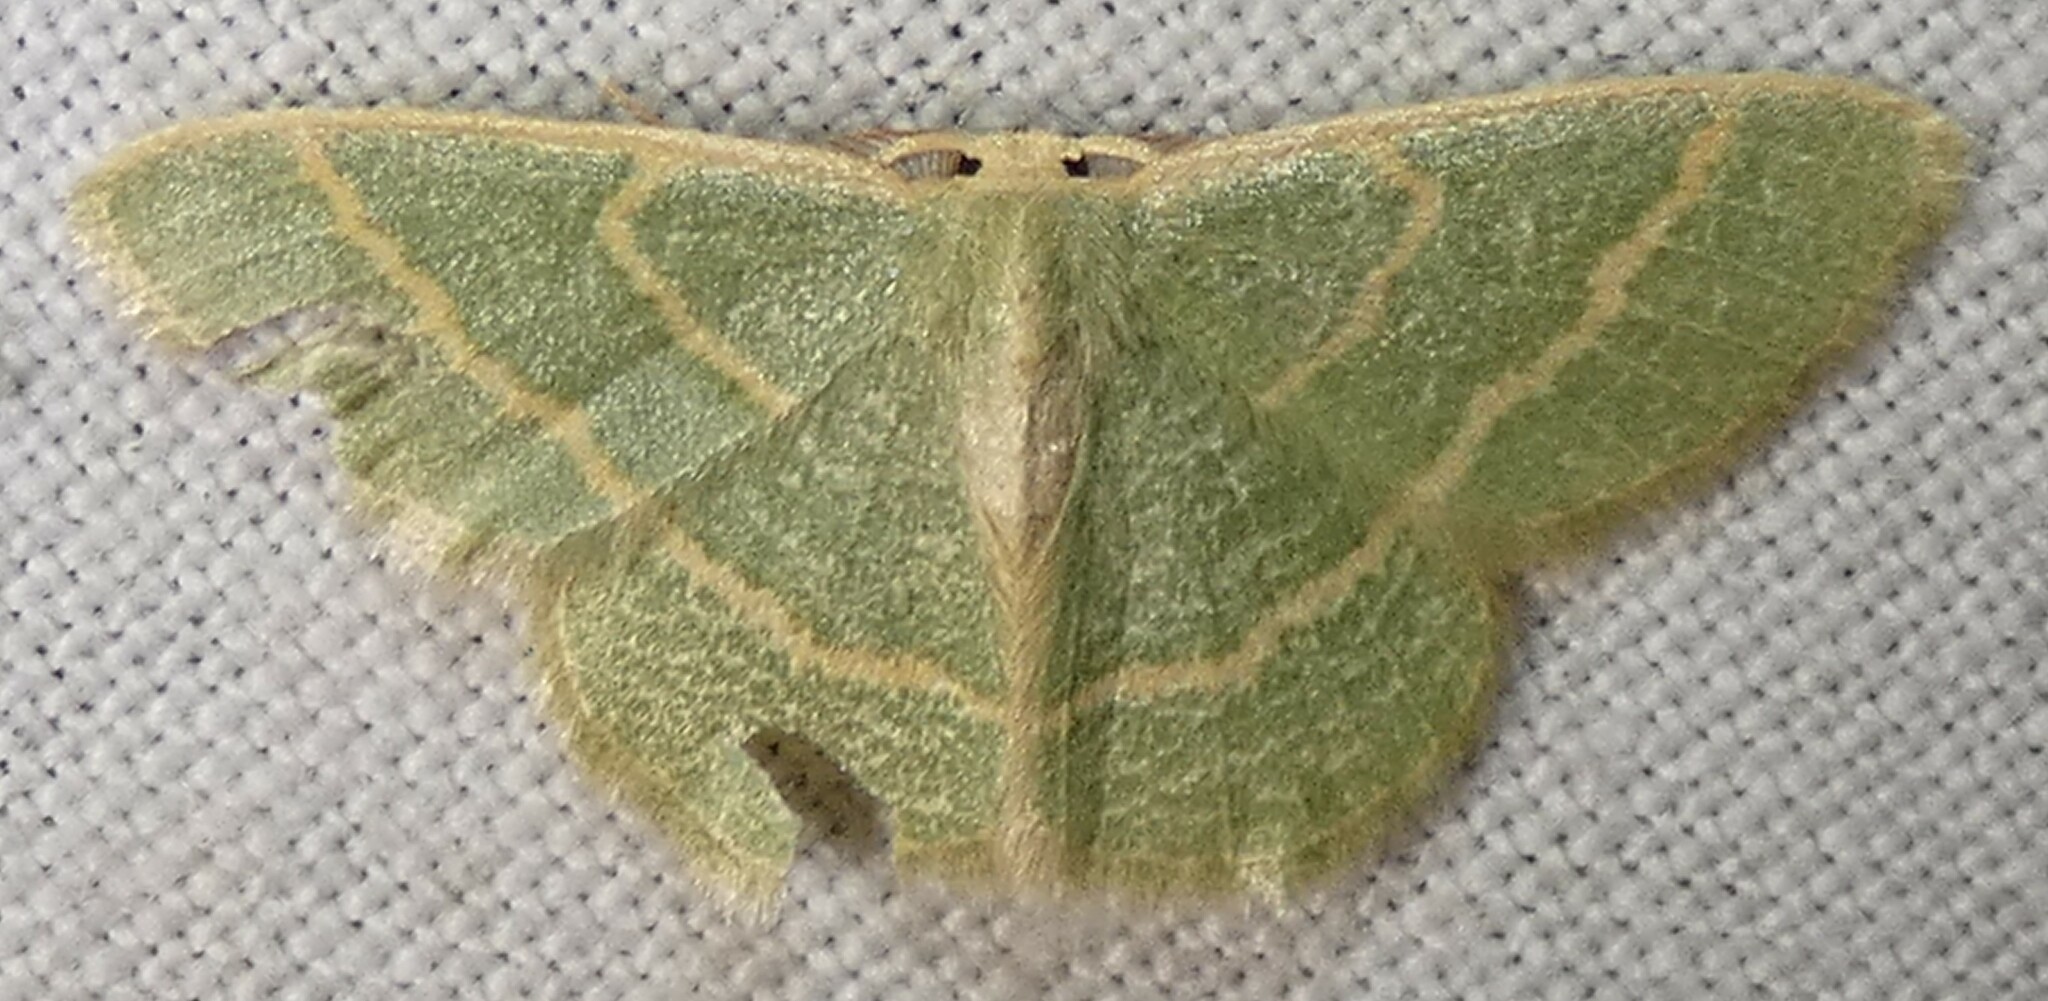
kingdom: Animalia
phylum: Arthropoda
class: Insecta
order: Lepidoptera
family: Geometridae
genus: Chlorochlamys
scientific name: Chlorochlamys chloroleucaria
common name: Blackberry looper
